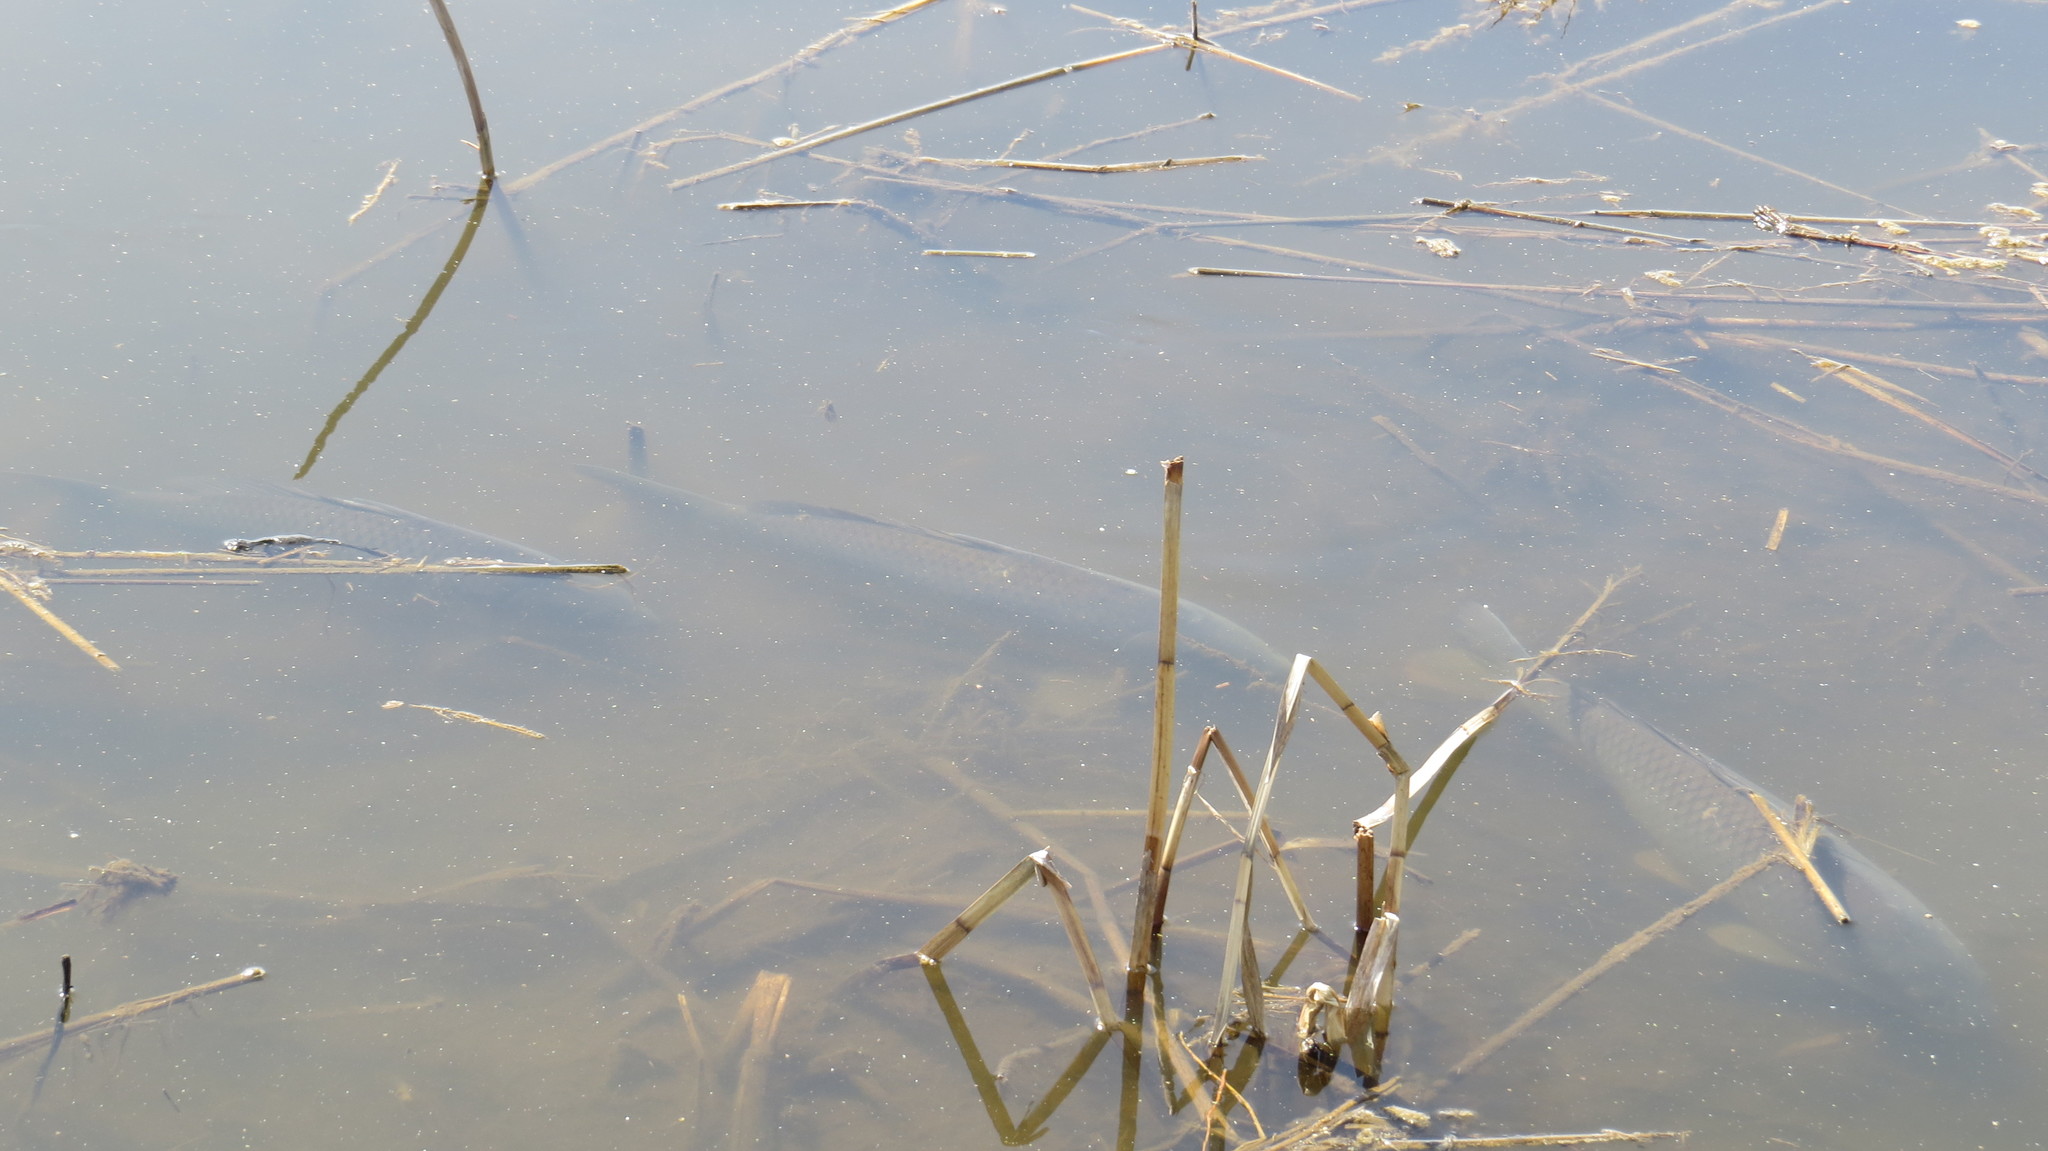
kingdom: Animalia
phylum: Chordata
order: Cypriniformes
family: Cyprinidae
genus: Cyprinus
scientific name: Cyprinus carpio
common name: Common carp
